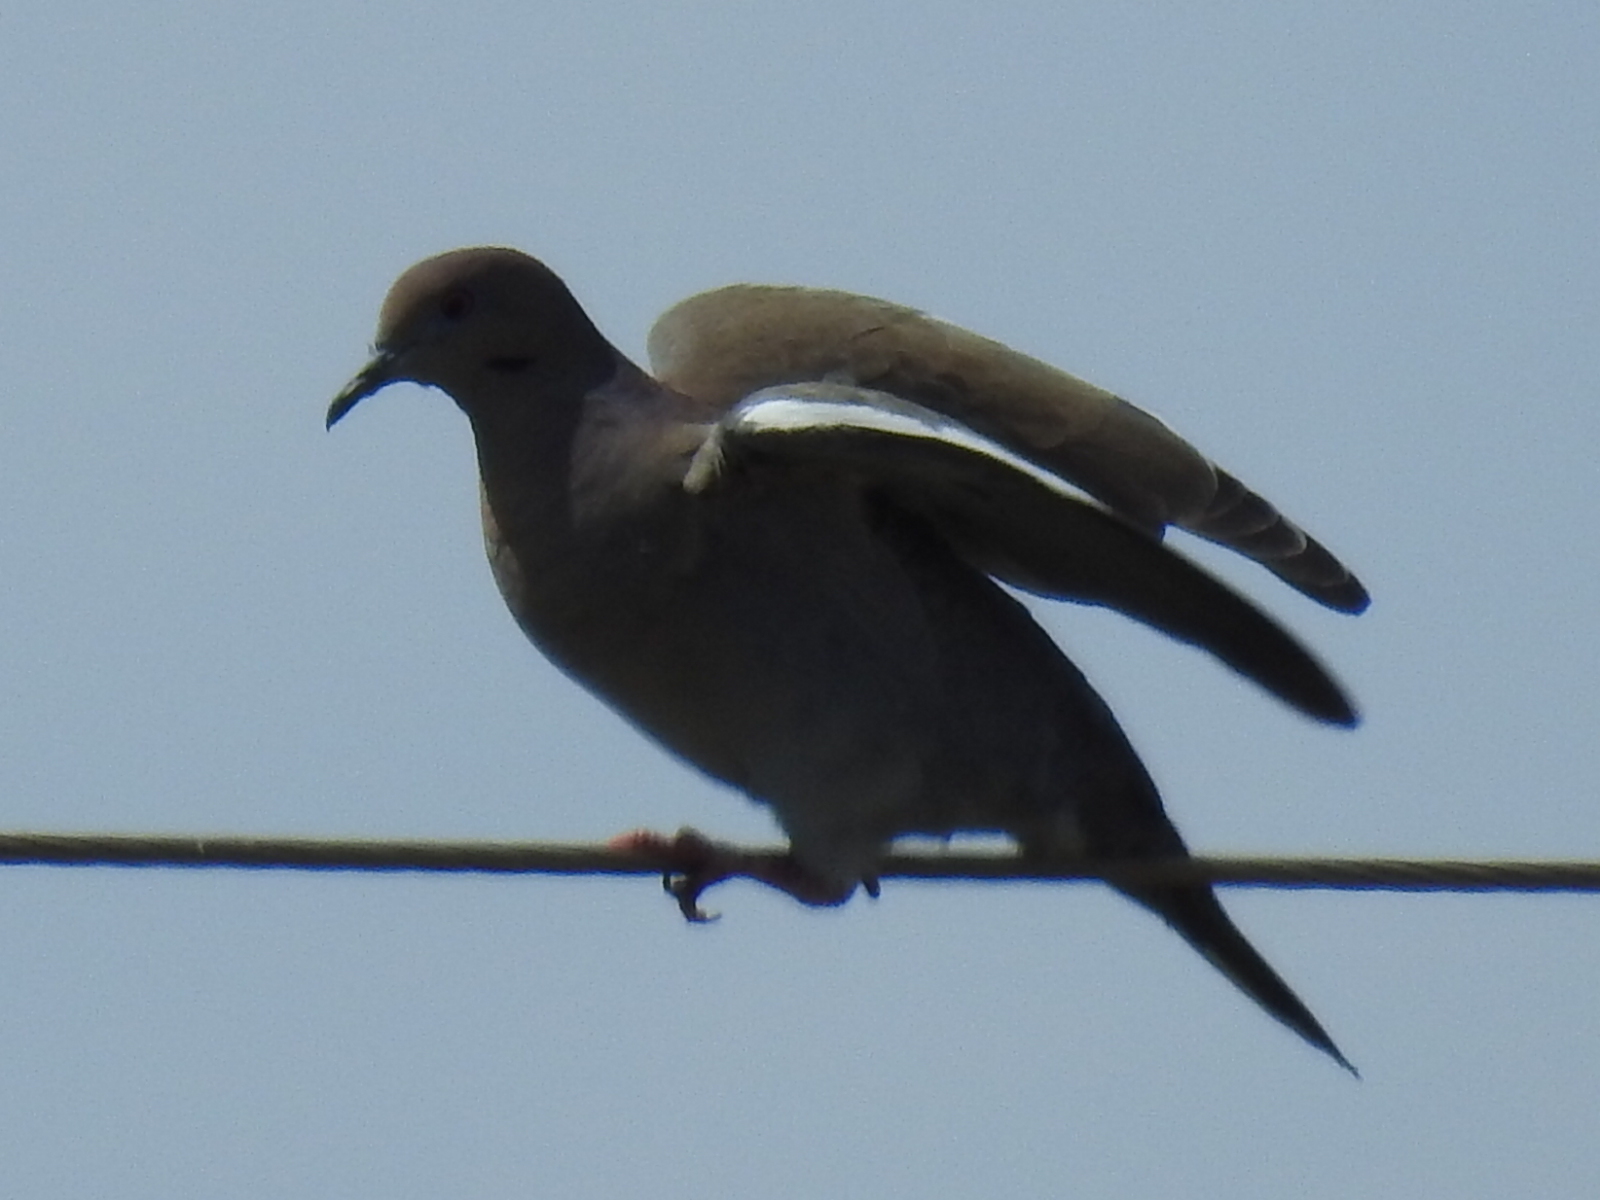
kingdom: Animalia
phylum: Chordata
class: Aves
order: Columbiformes
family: Columbidae
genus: Zenaida
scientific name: Zenaida asiatica
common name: White-winged dove
